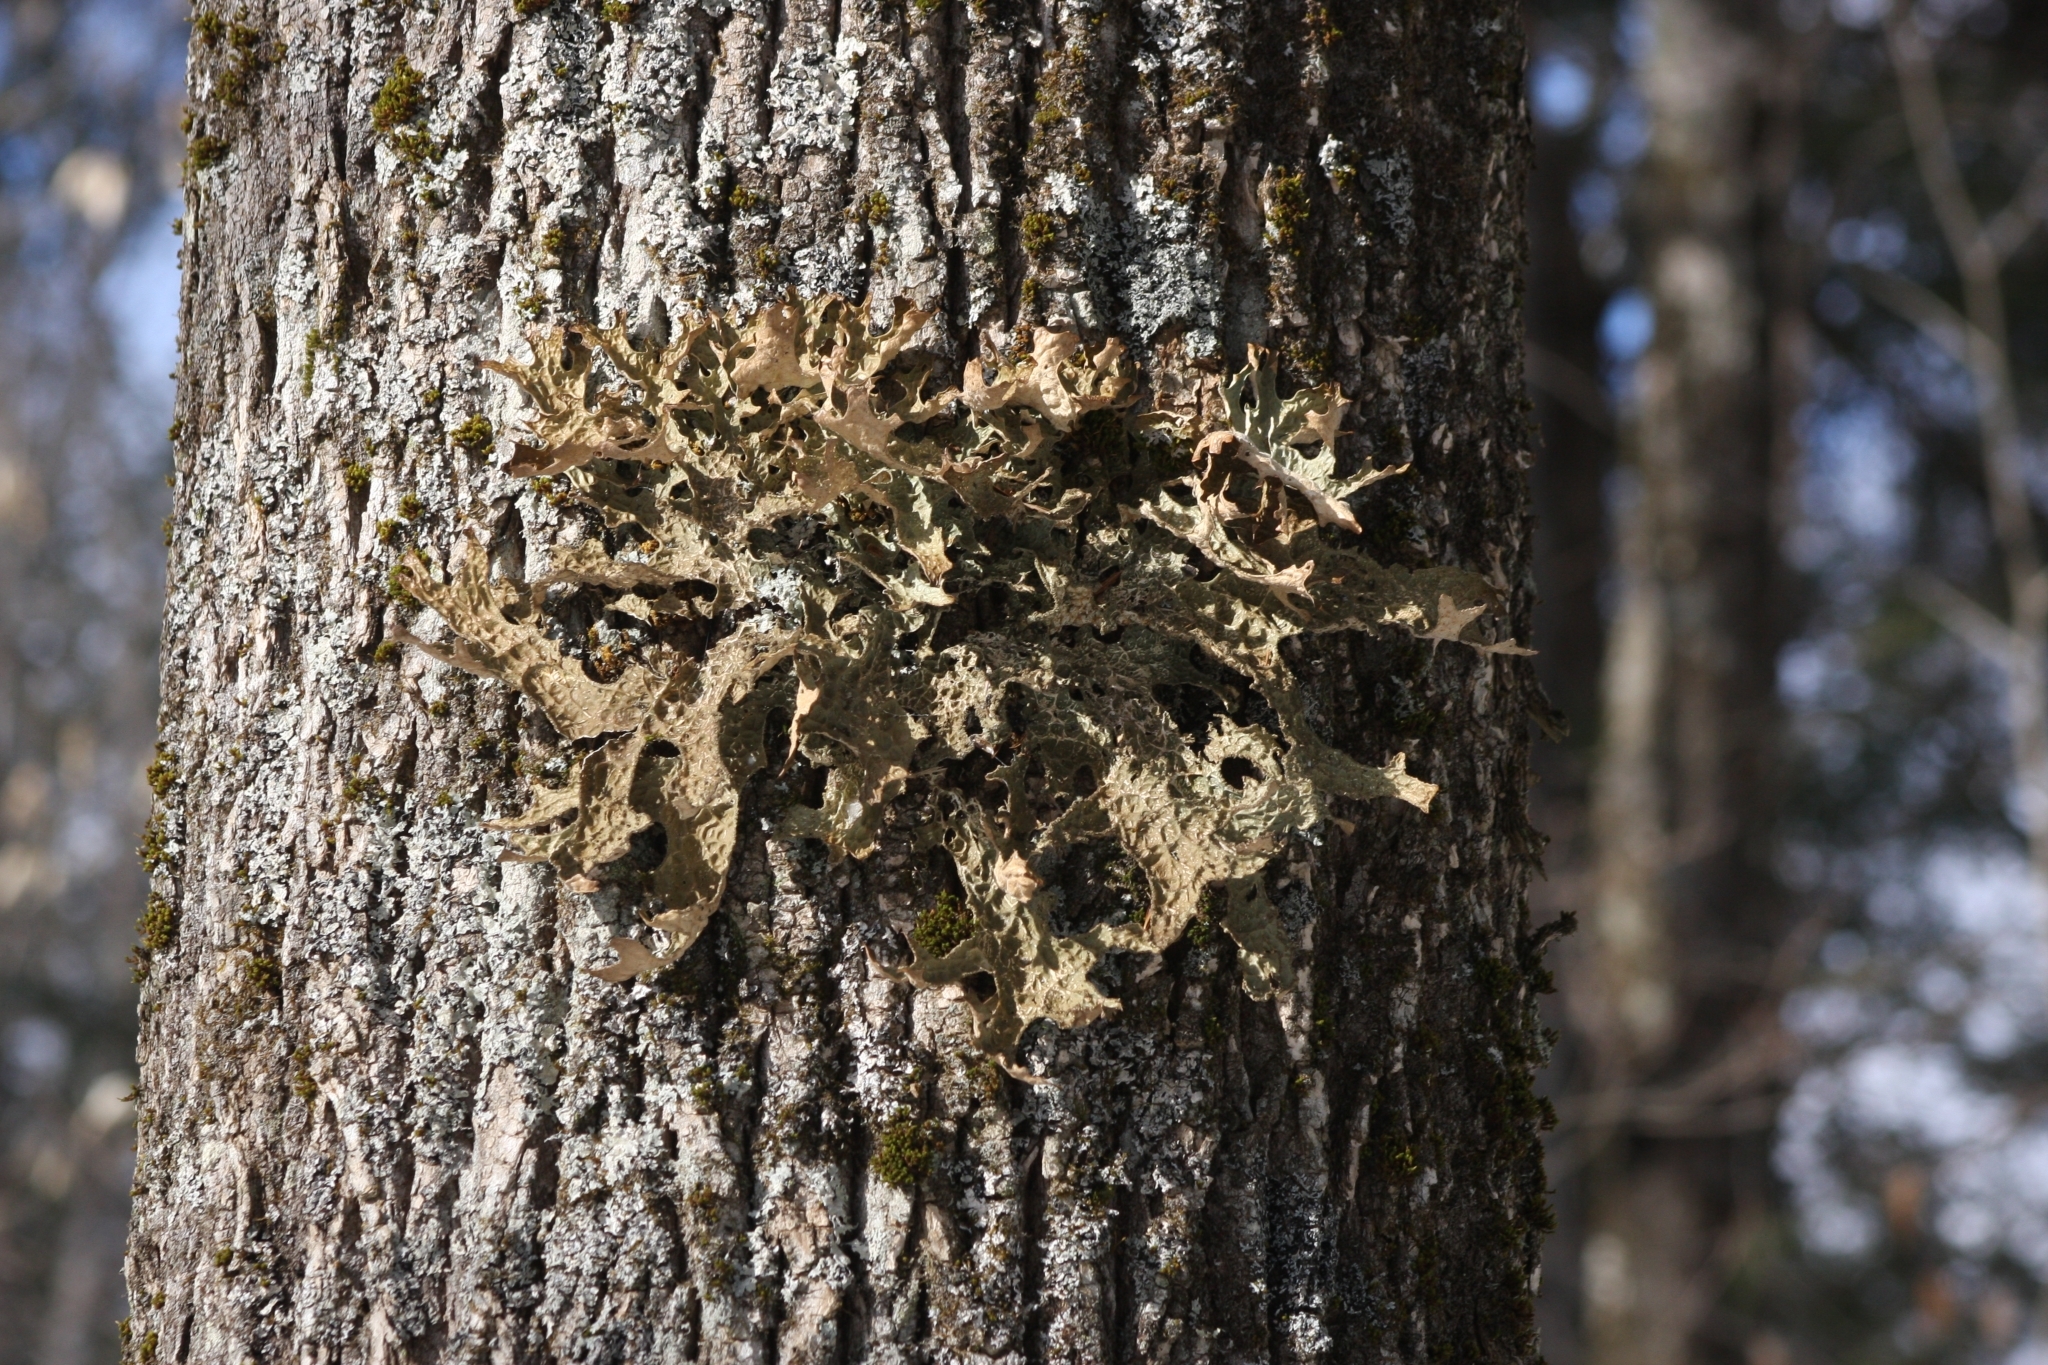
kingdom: Fungi
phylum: Ascomycota
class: Lecanoromycetes
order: Peltigerales
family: Lobariaceae
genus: Lobaria
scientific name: Lobaria pulmonaria
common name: Lungwort
